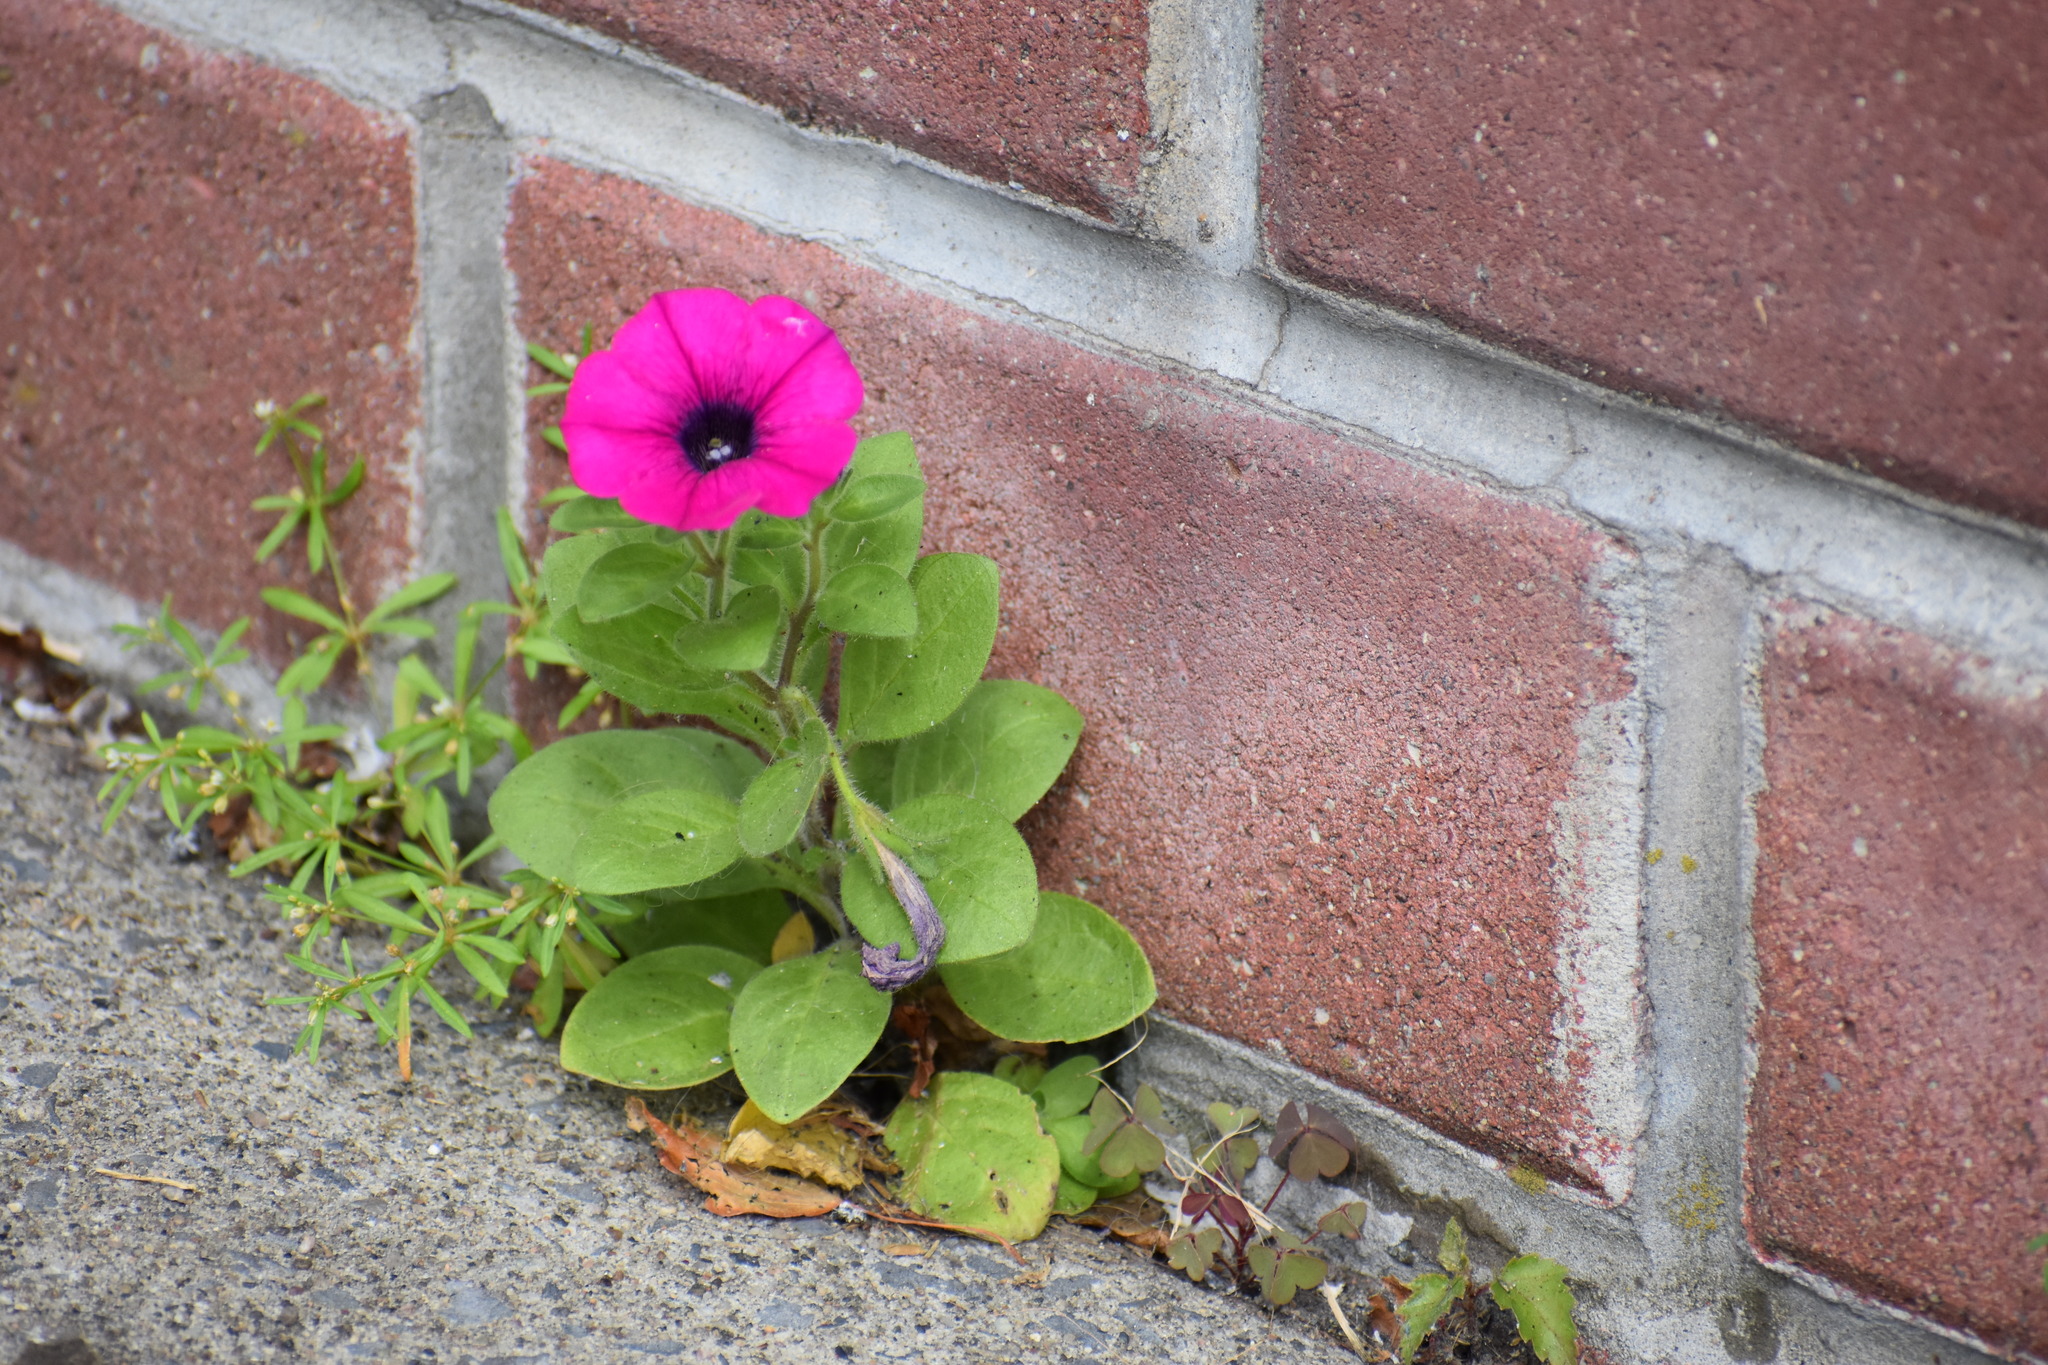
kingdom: Plantae
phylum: Tracheophyta
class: Magnoliopsida
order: Solanales
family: Solanaceae
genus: Petunia
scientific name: Petunia atkinsiana
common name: Petunia
